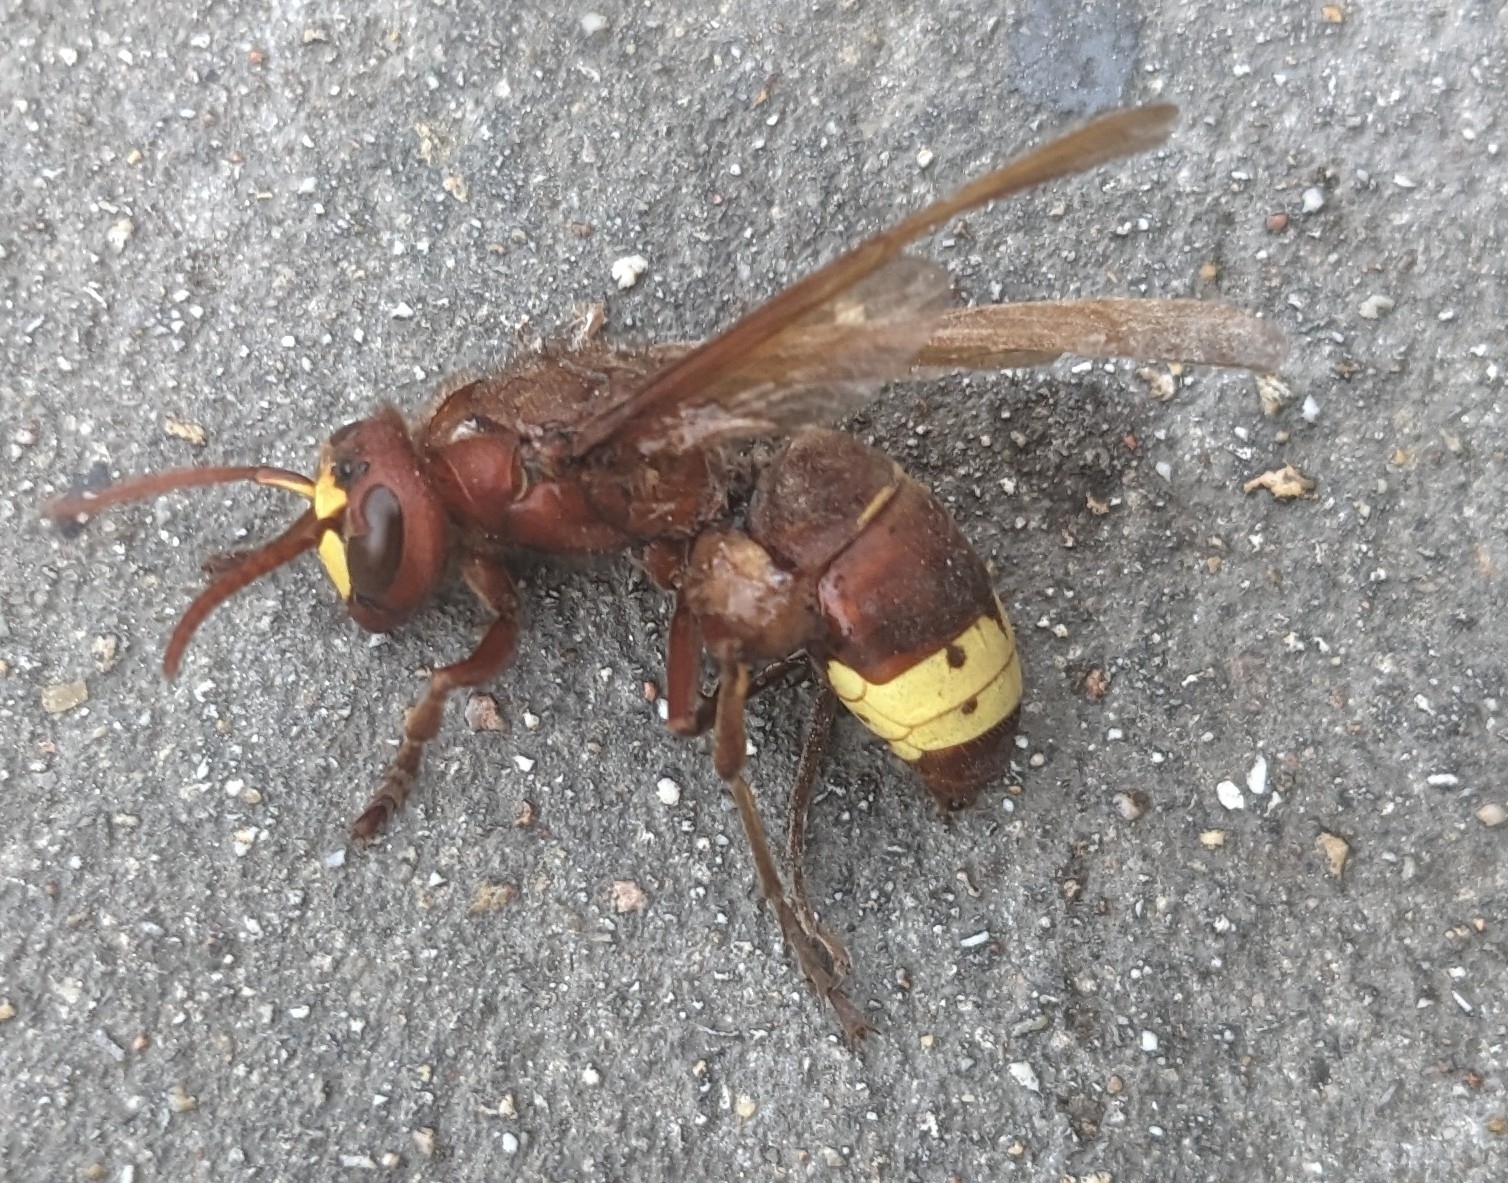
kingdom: Animalia
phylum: Arthropoda
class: Insecta
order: Hymenoptera
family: Vespidae
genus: Vespa
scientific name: Vespa orientalis
